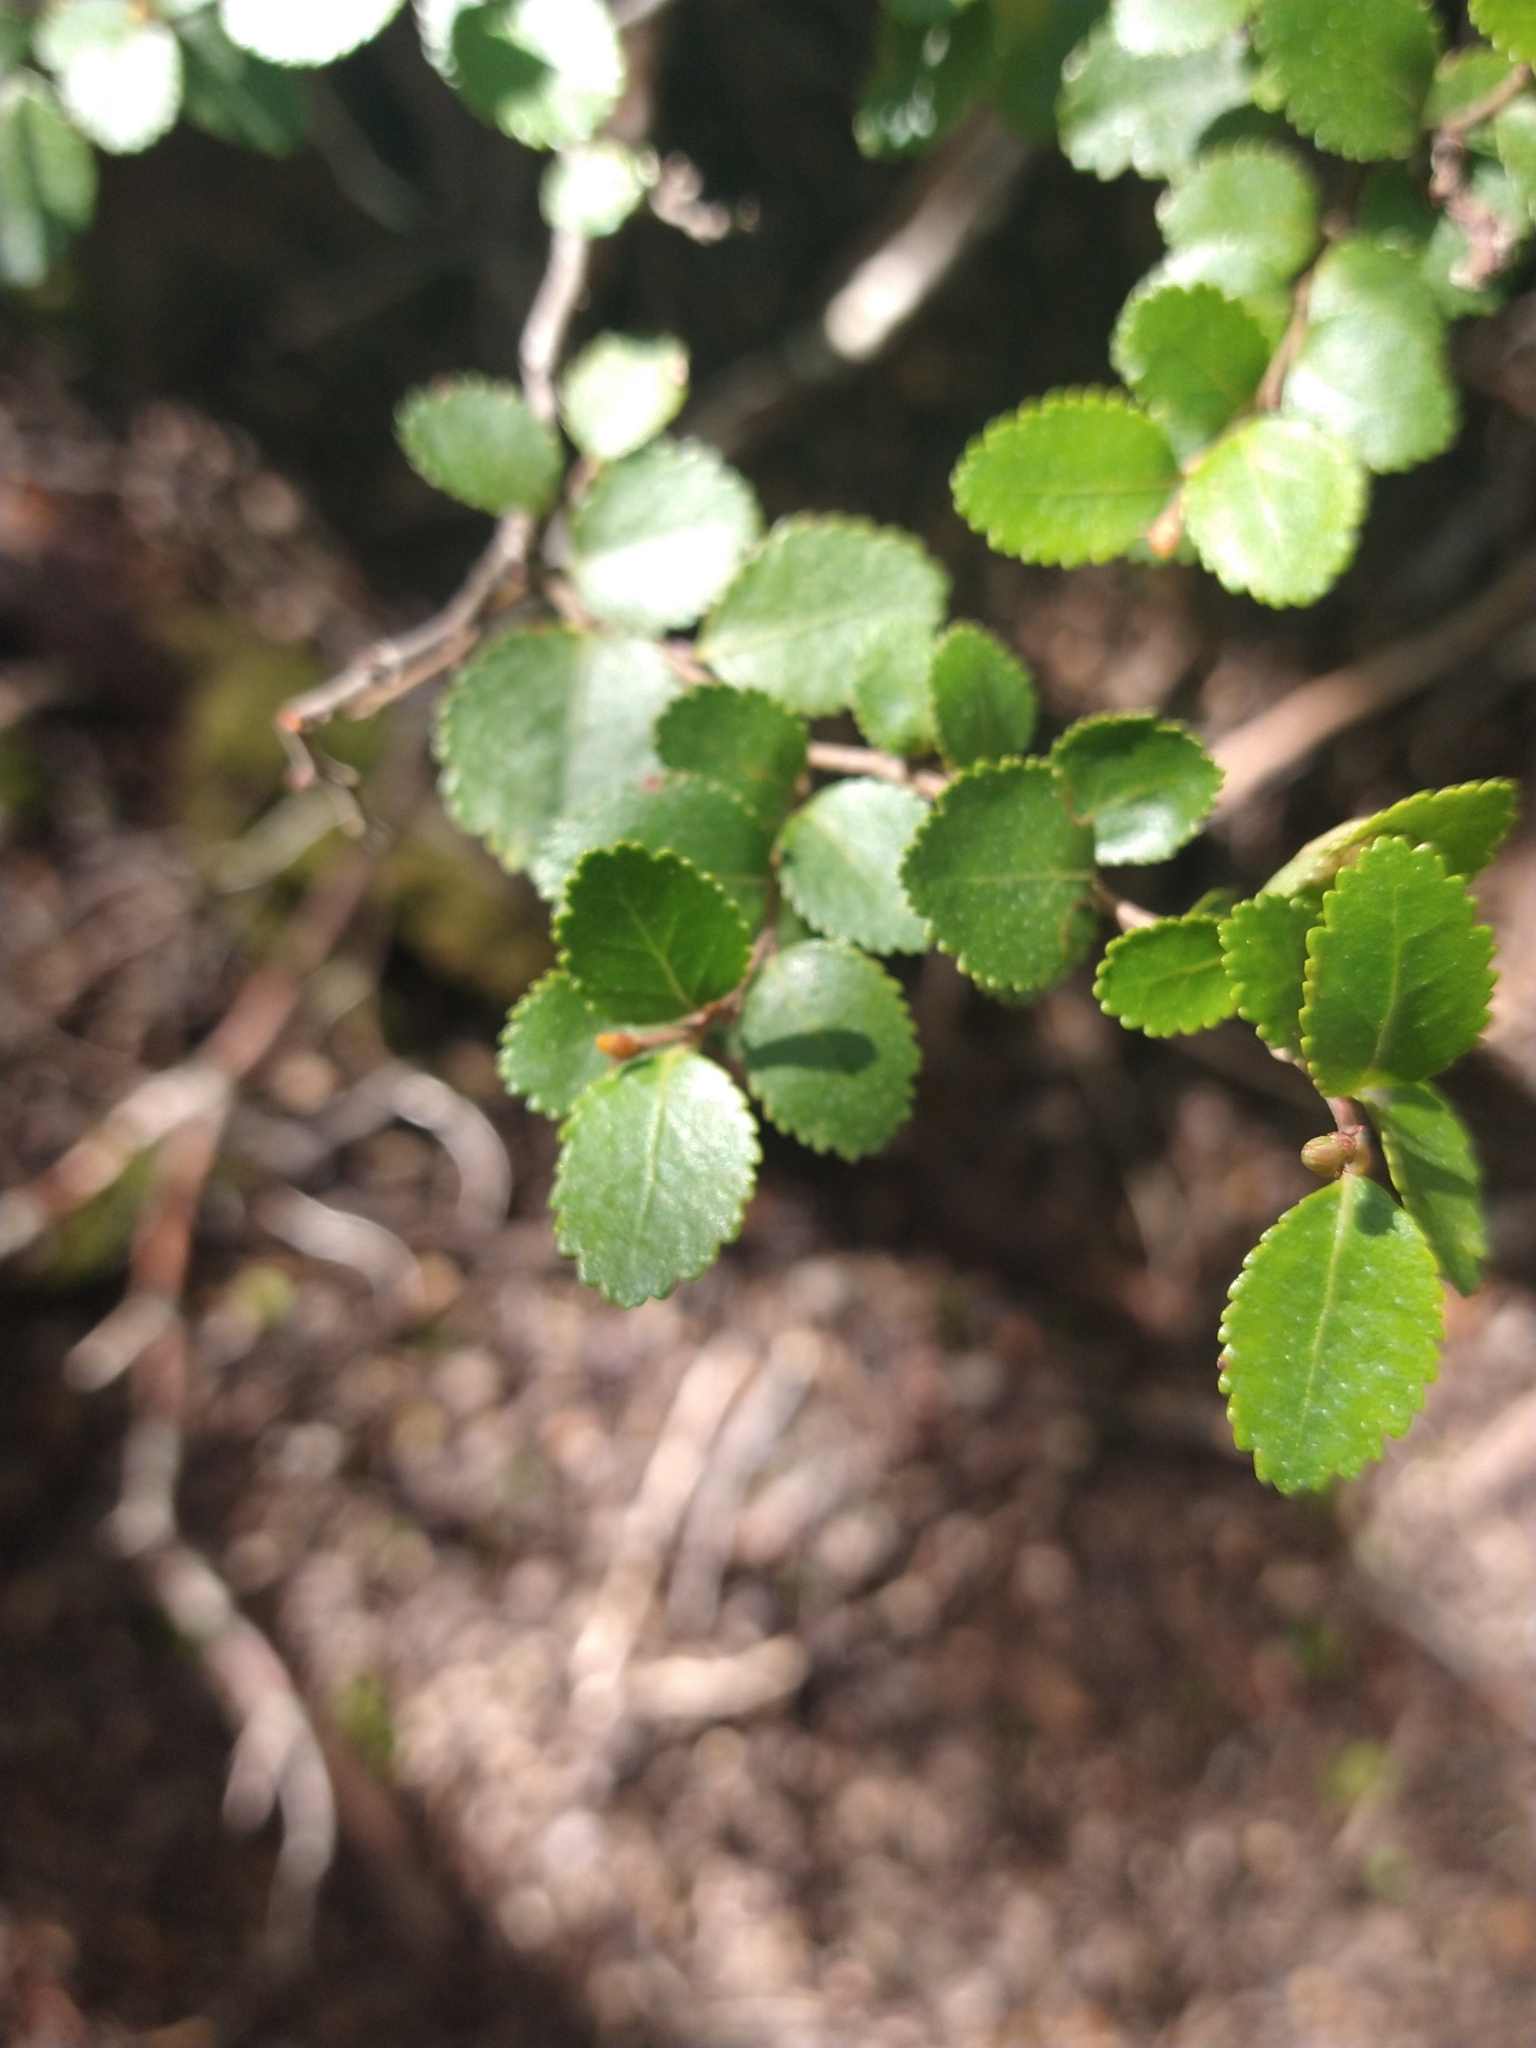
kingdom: Plantae
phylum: Tracheophyta
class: Magnoliopsida
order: Fagales
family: Nothofagaceae
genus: Nothofagus
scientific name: Nothofagus betuloides
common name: Magellan's beech
